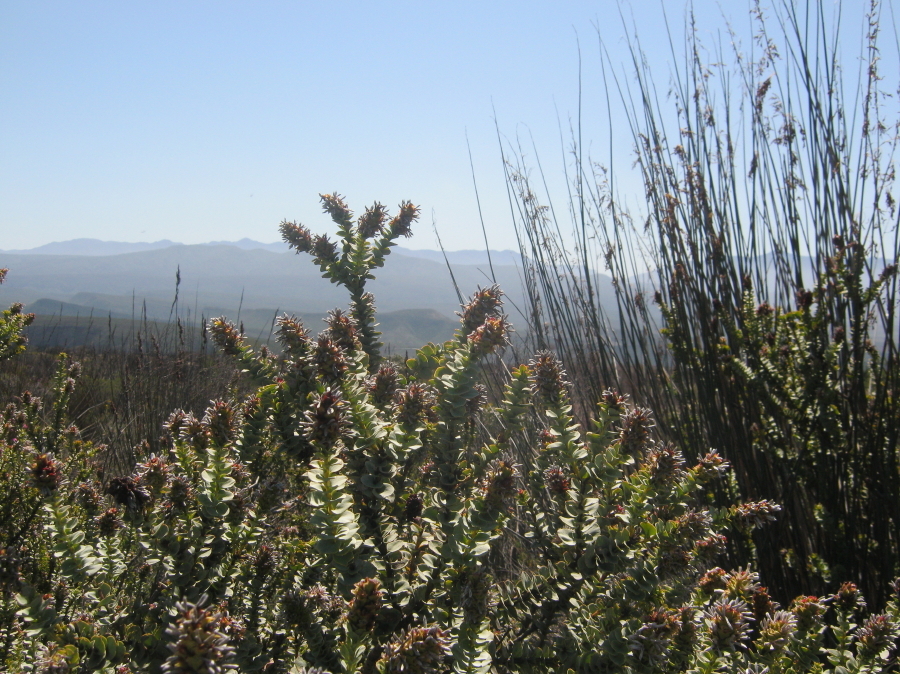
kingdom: Plantae
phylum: Tracheophyta
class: Magnoliopsida
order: Proteales
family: Proteaceae
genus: Paranomus
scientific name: Paranomus roodebergensis
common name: Honey-scented sceptre
